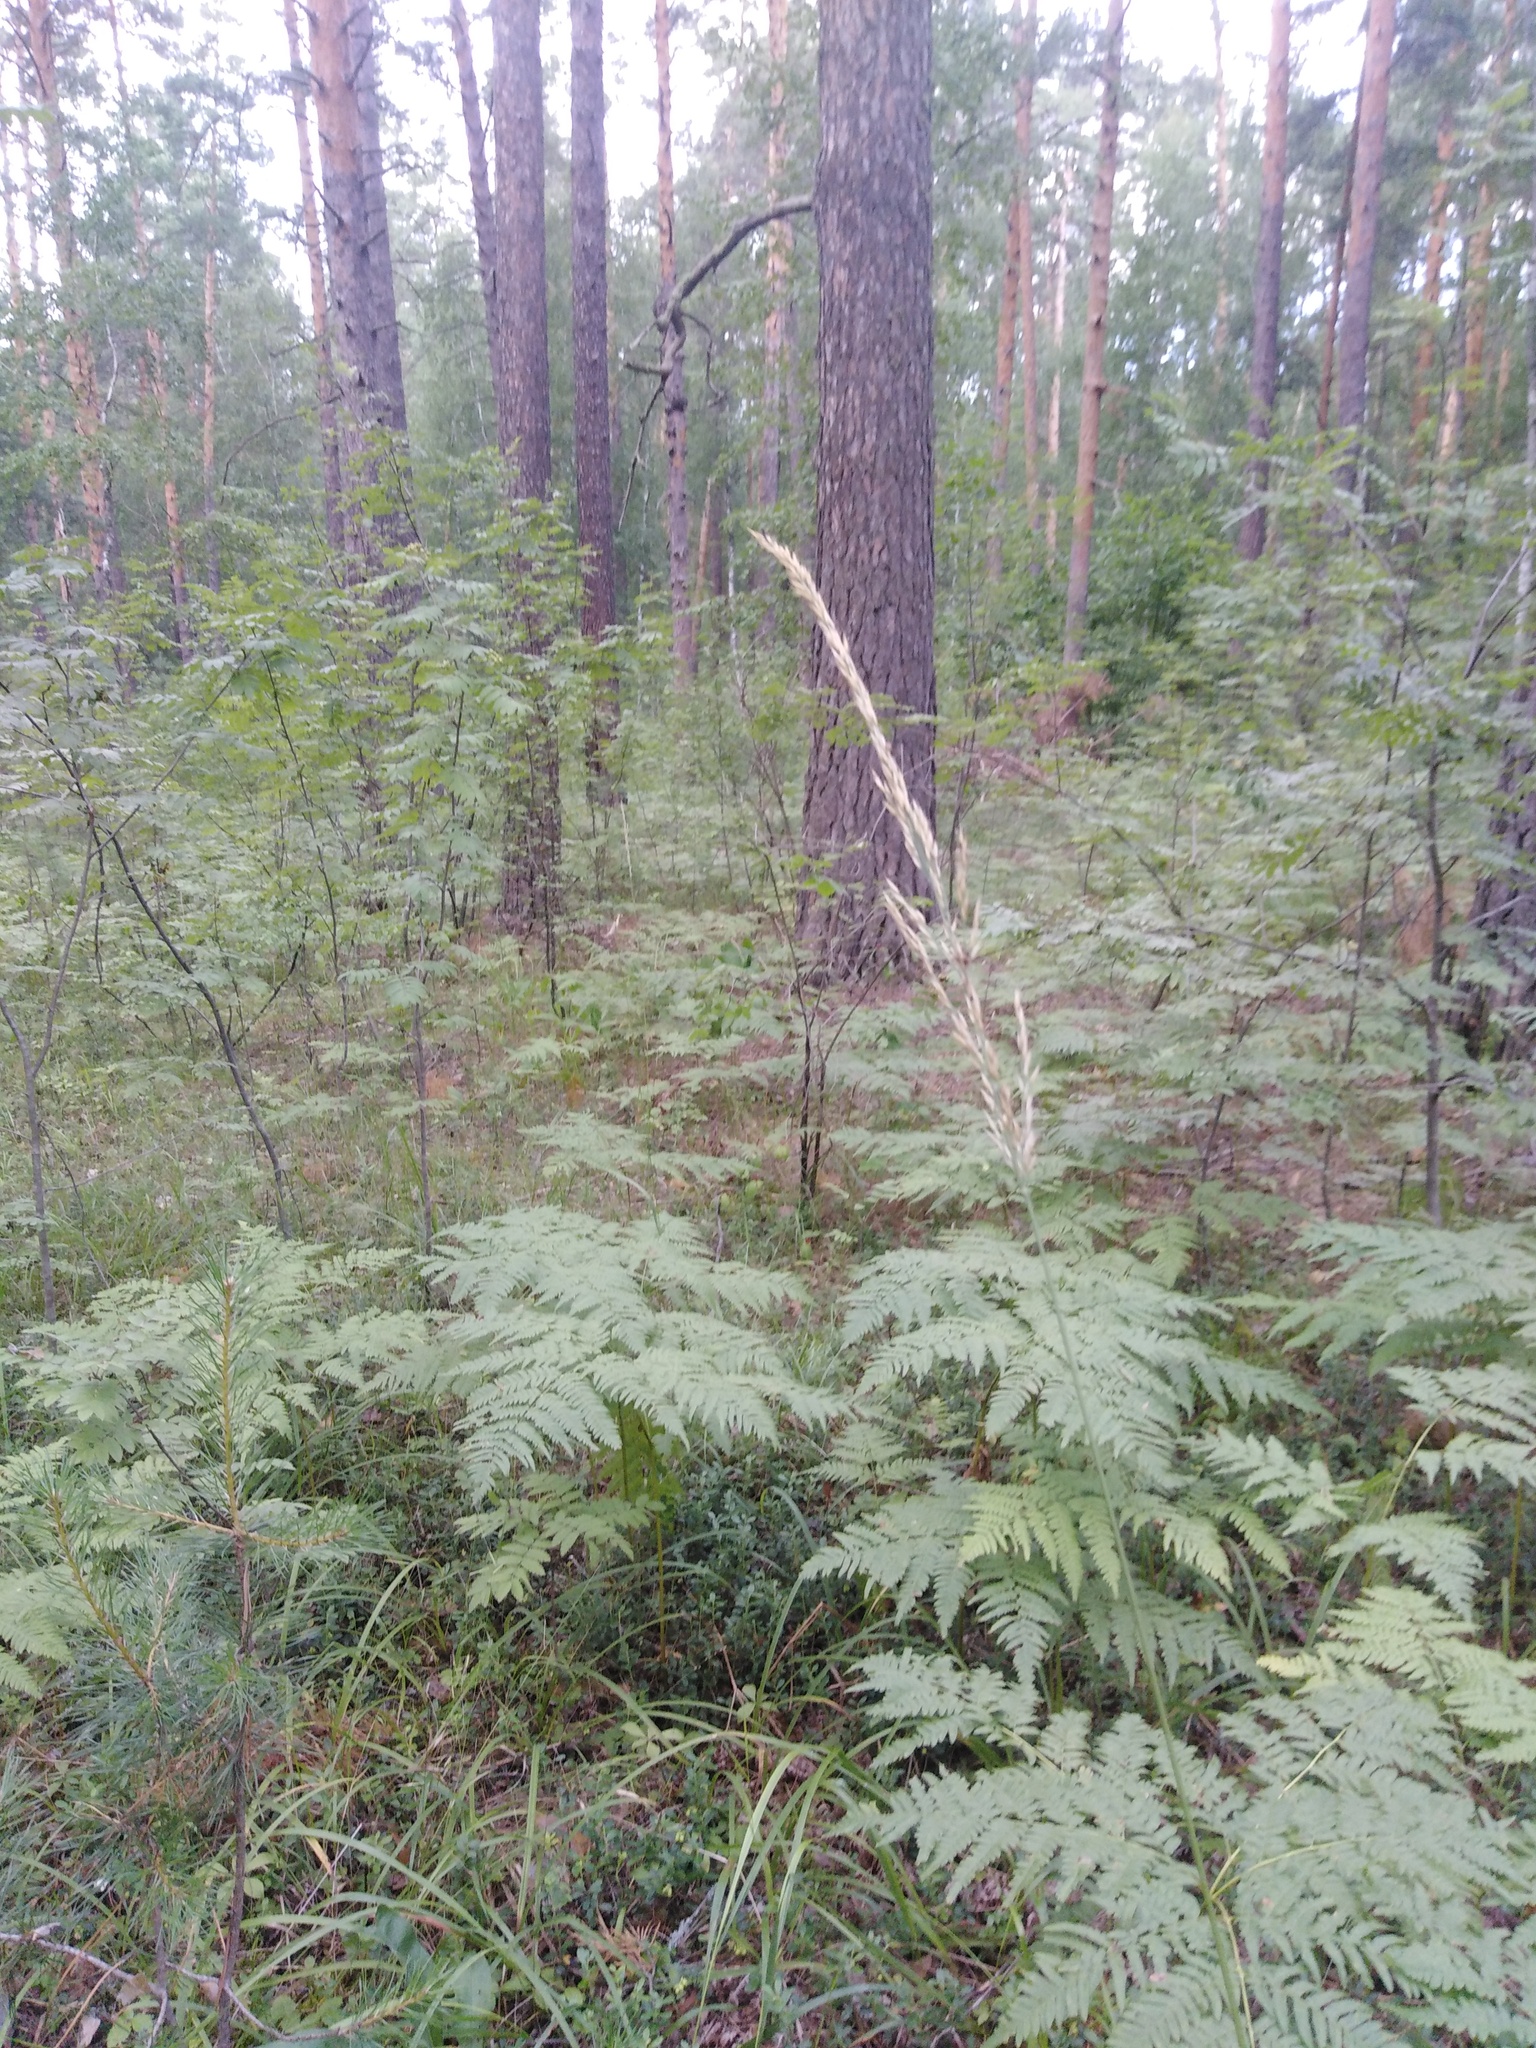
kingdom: Plantae
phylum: Tracheophyta
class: Liliopsida
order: Poales
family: Poaceae
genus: Calamagrostis
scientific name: Calamagrostis arundinacea
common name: Metskastik
